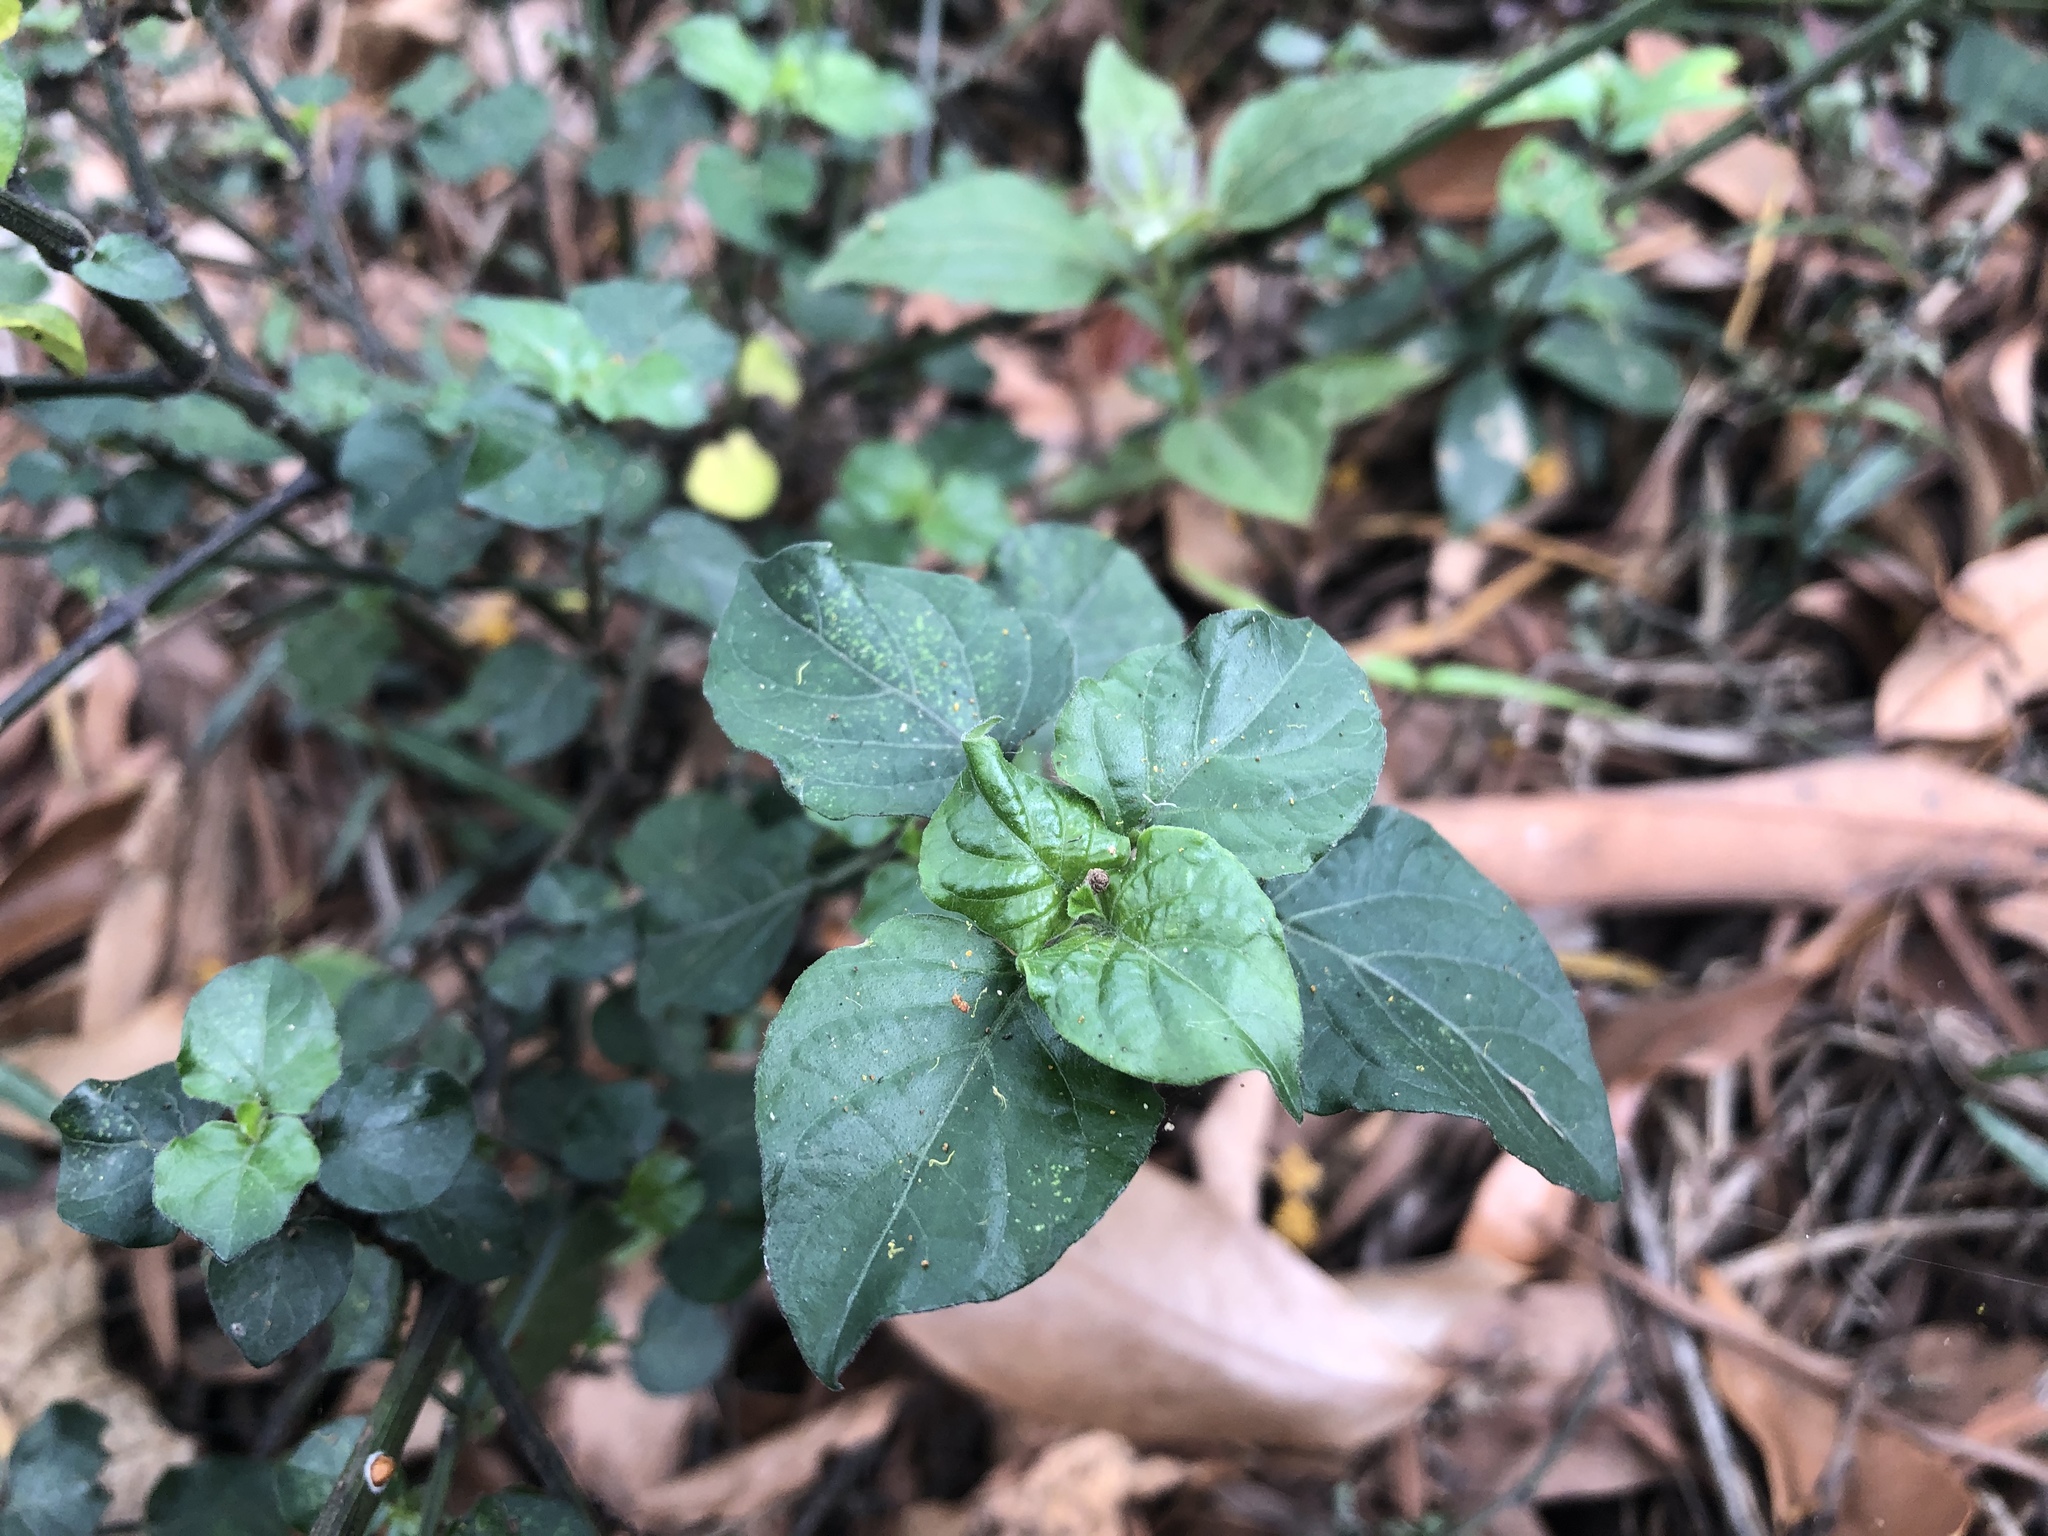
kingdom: Plantae
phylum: Tracheophyta
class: Magnoliopsida
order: Lamiales
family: Acanthaceae
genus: Asystasia
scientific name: Asystasia gangetica
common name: Chinese violet
